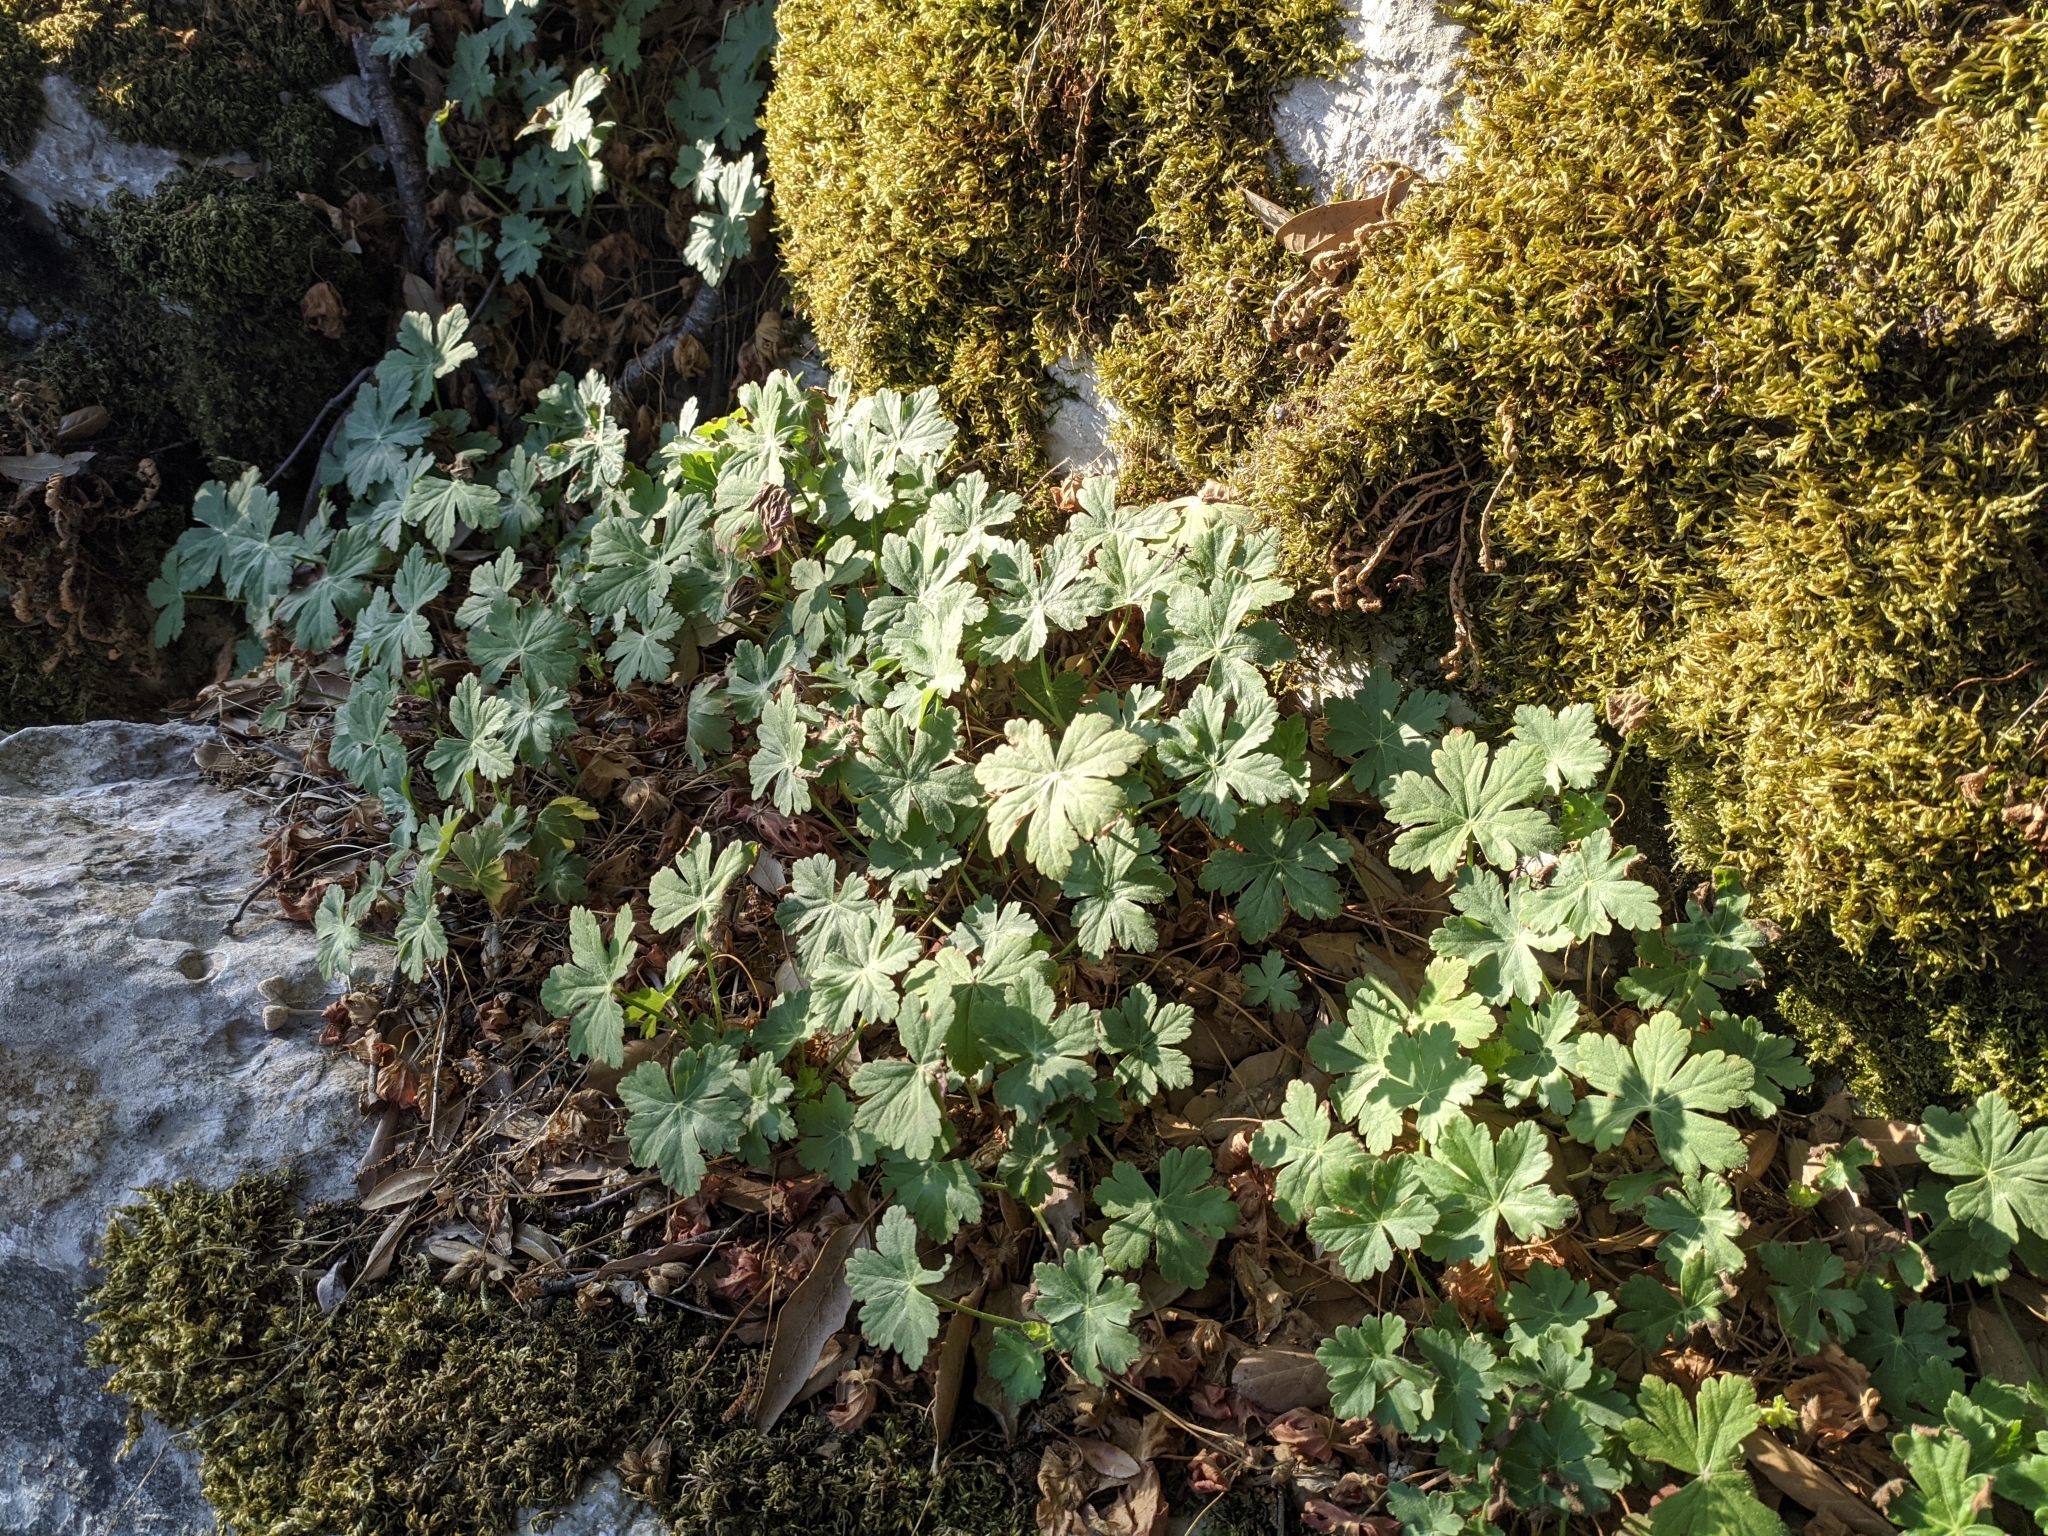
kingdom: Plantae
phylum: Tracheophyta
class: Magnoliopsida
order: Geraniales
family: Geraniaceae
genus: Geranium
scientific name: Geranium macrorrhizum
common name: Rock crane's-bill
